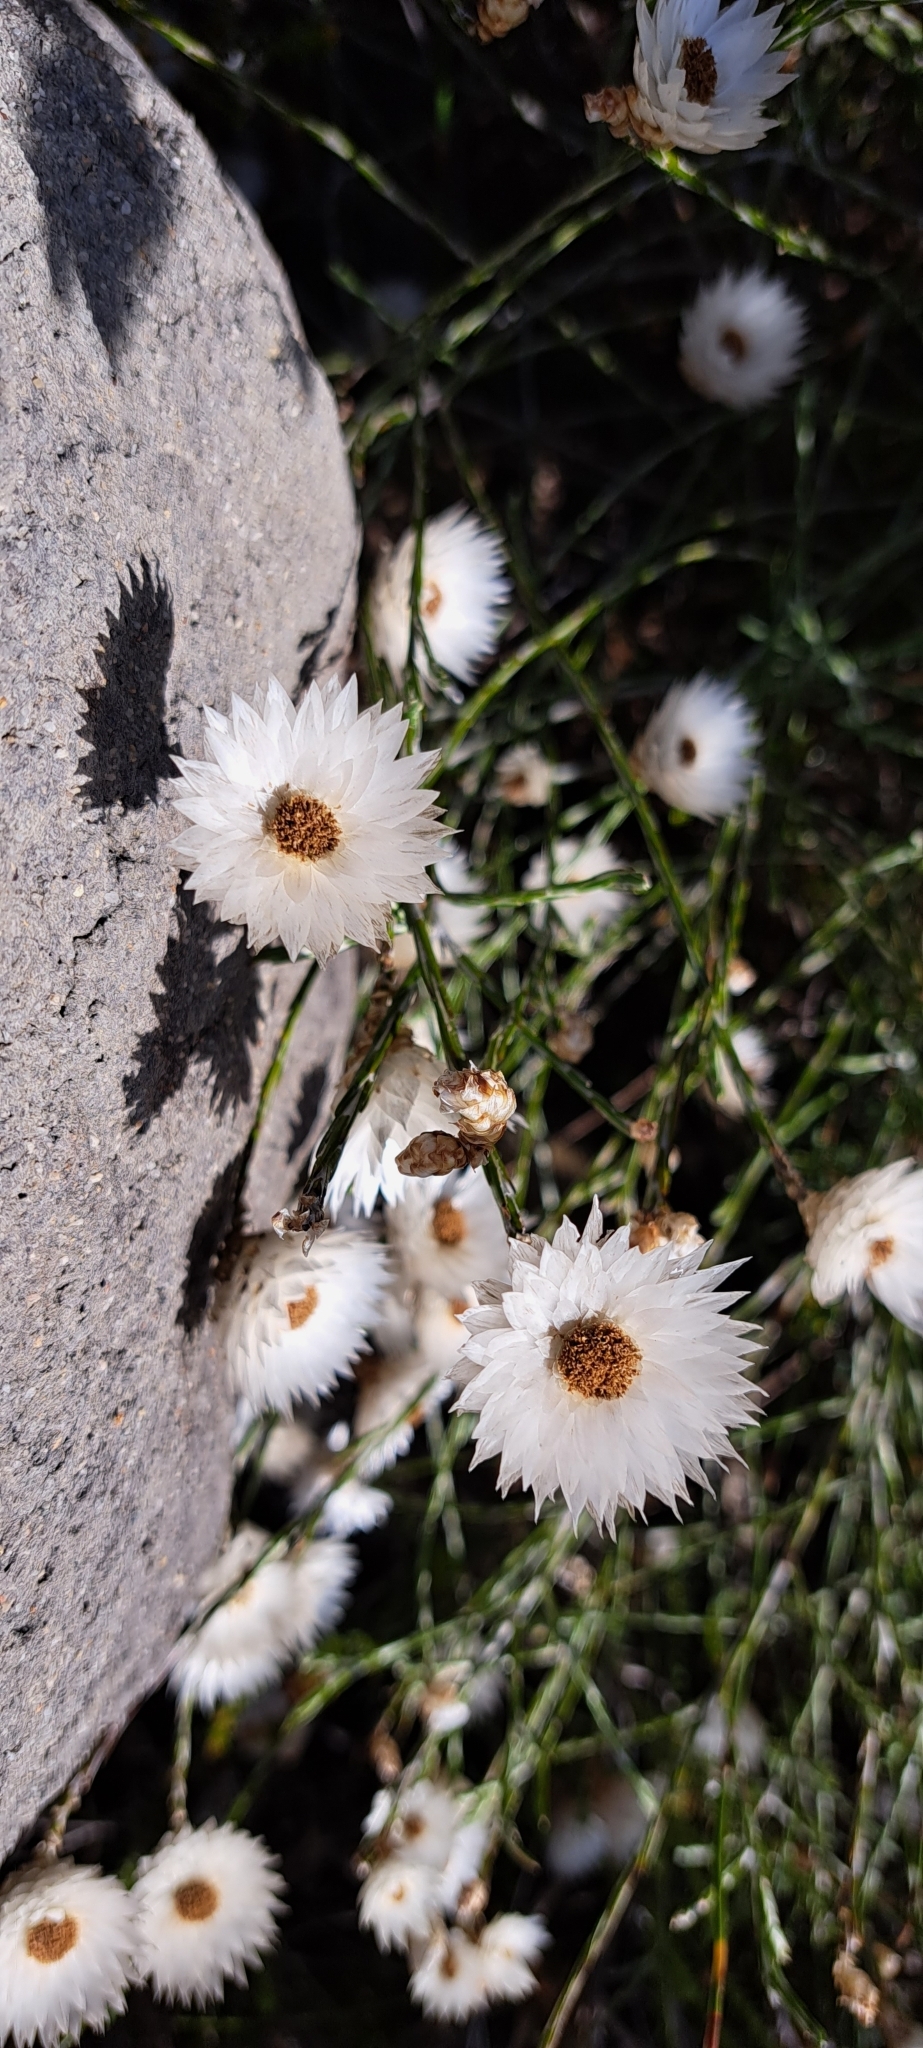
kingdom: Plantae
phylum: Tracheophyta
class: Magnoliopsida
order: Asterales
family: Asteraceae
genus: Edmondia
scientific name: Edmondia sesamoides
